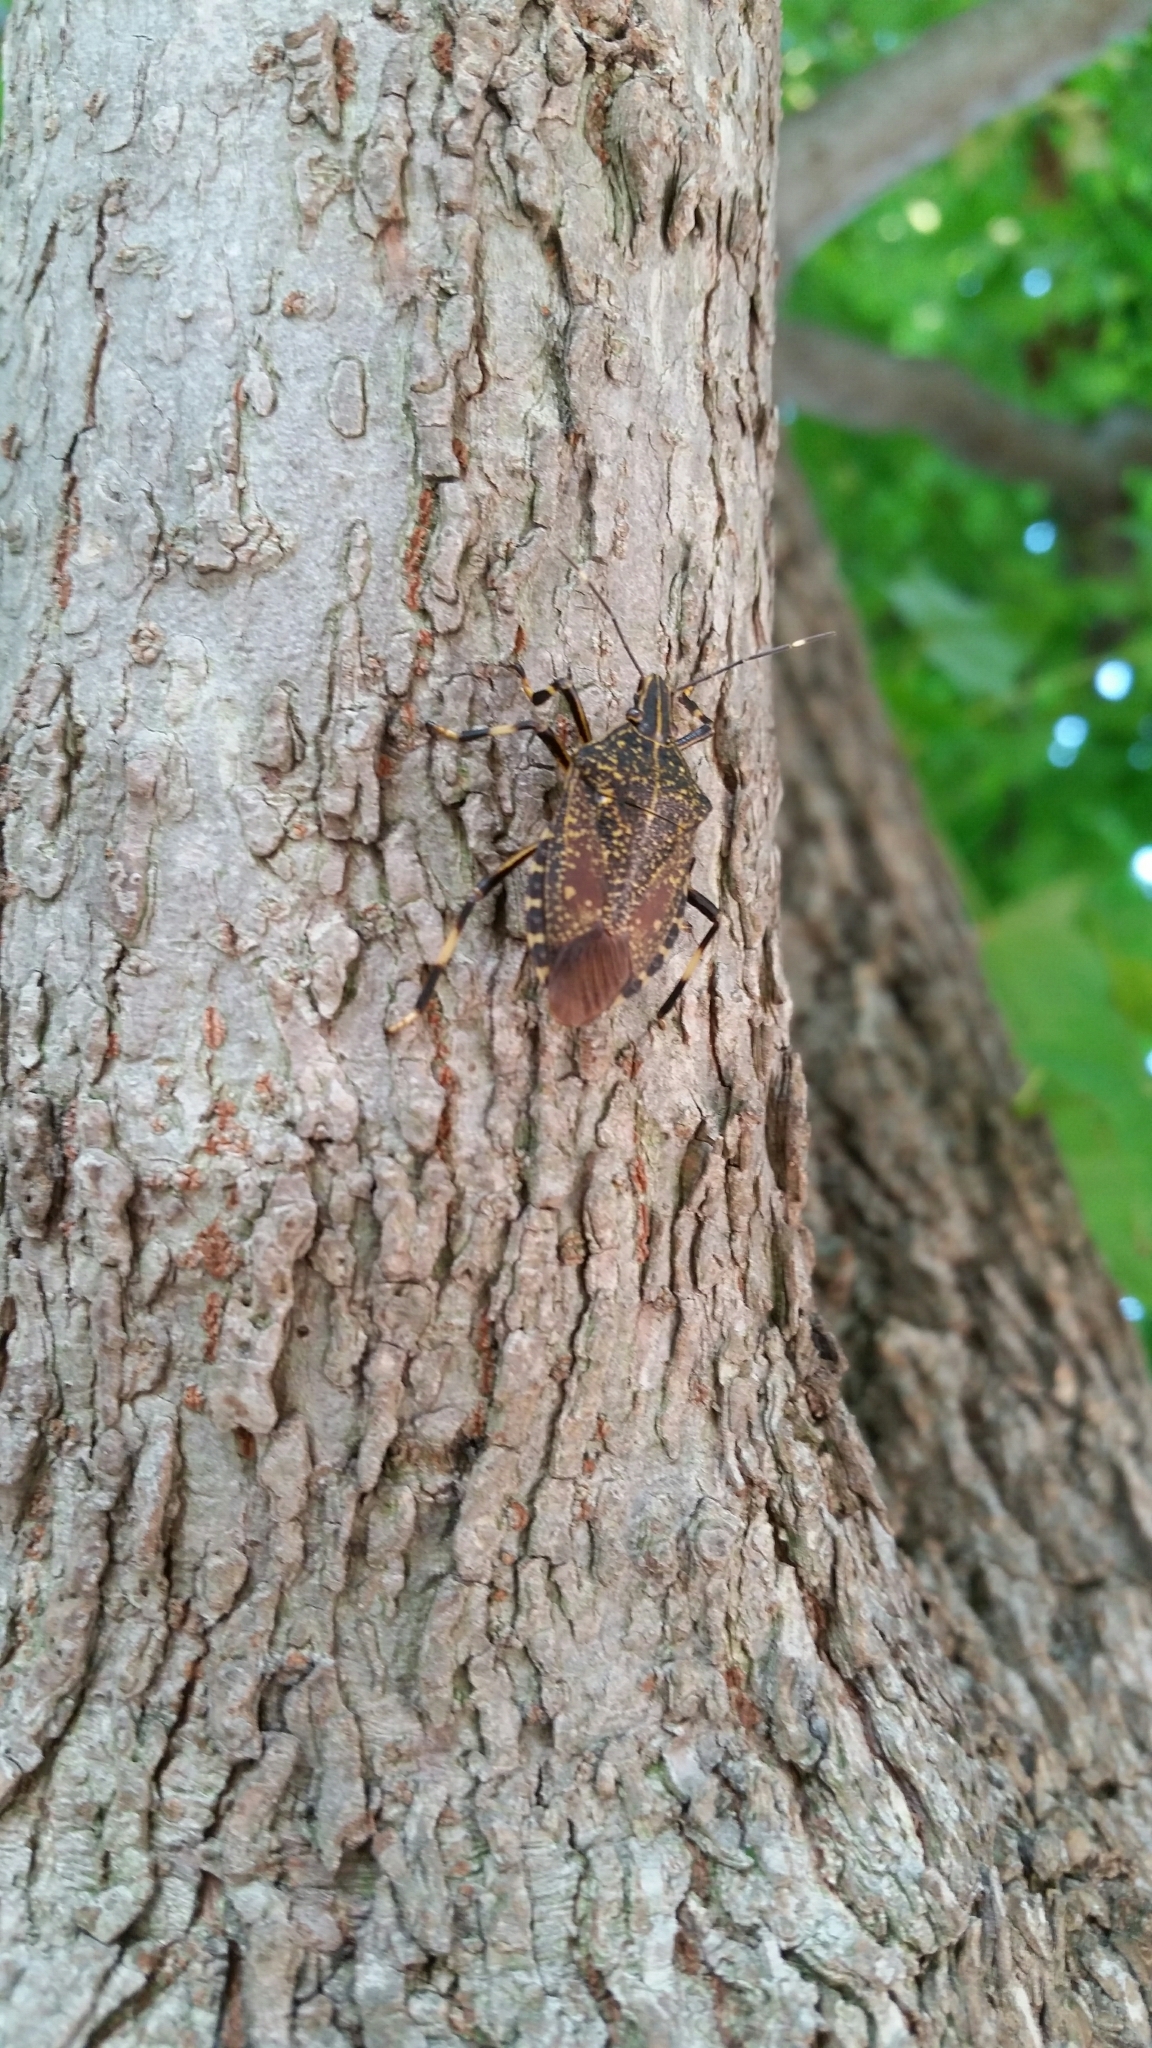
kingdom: Animalia
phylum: Arthropoda
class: Insecta
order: Hemiptera
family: Pentatomidae
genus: Erthesina
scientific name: Erthesina fullo
